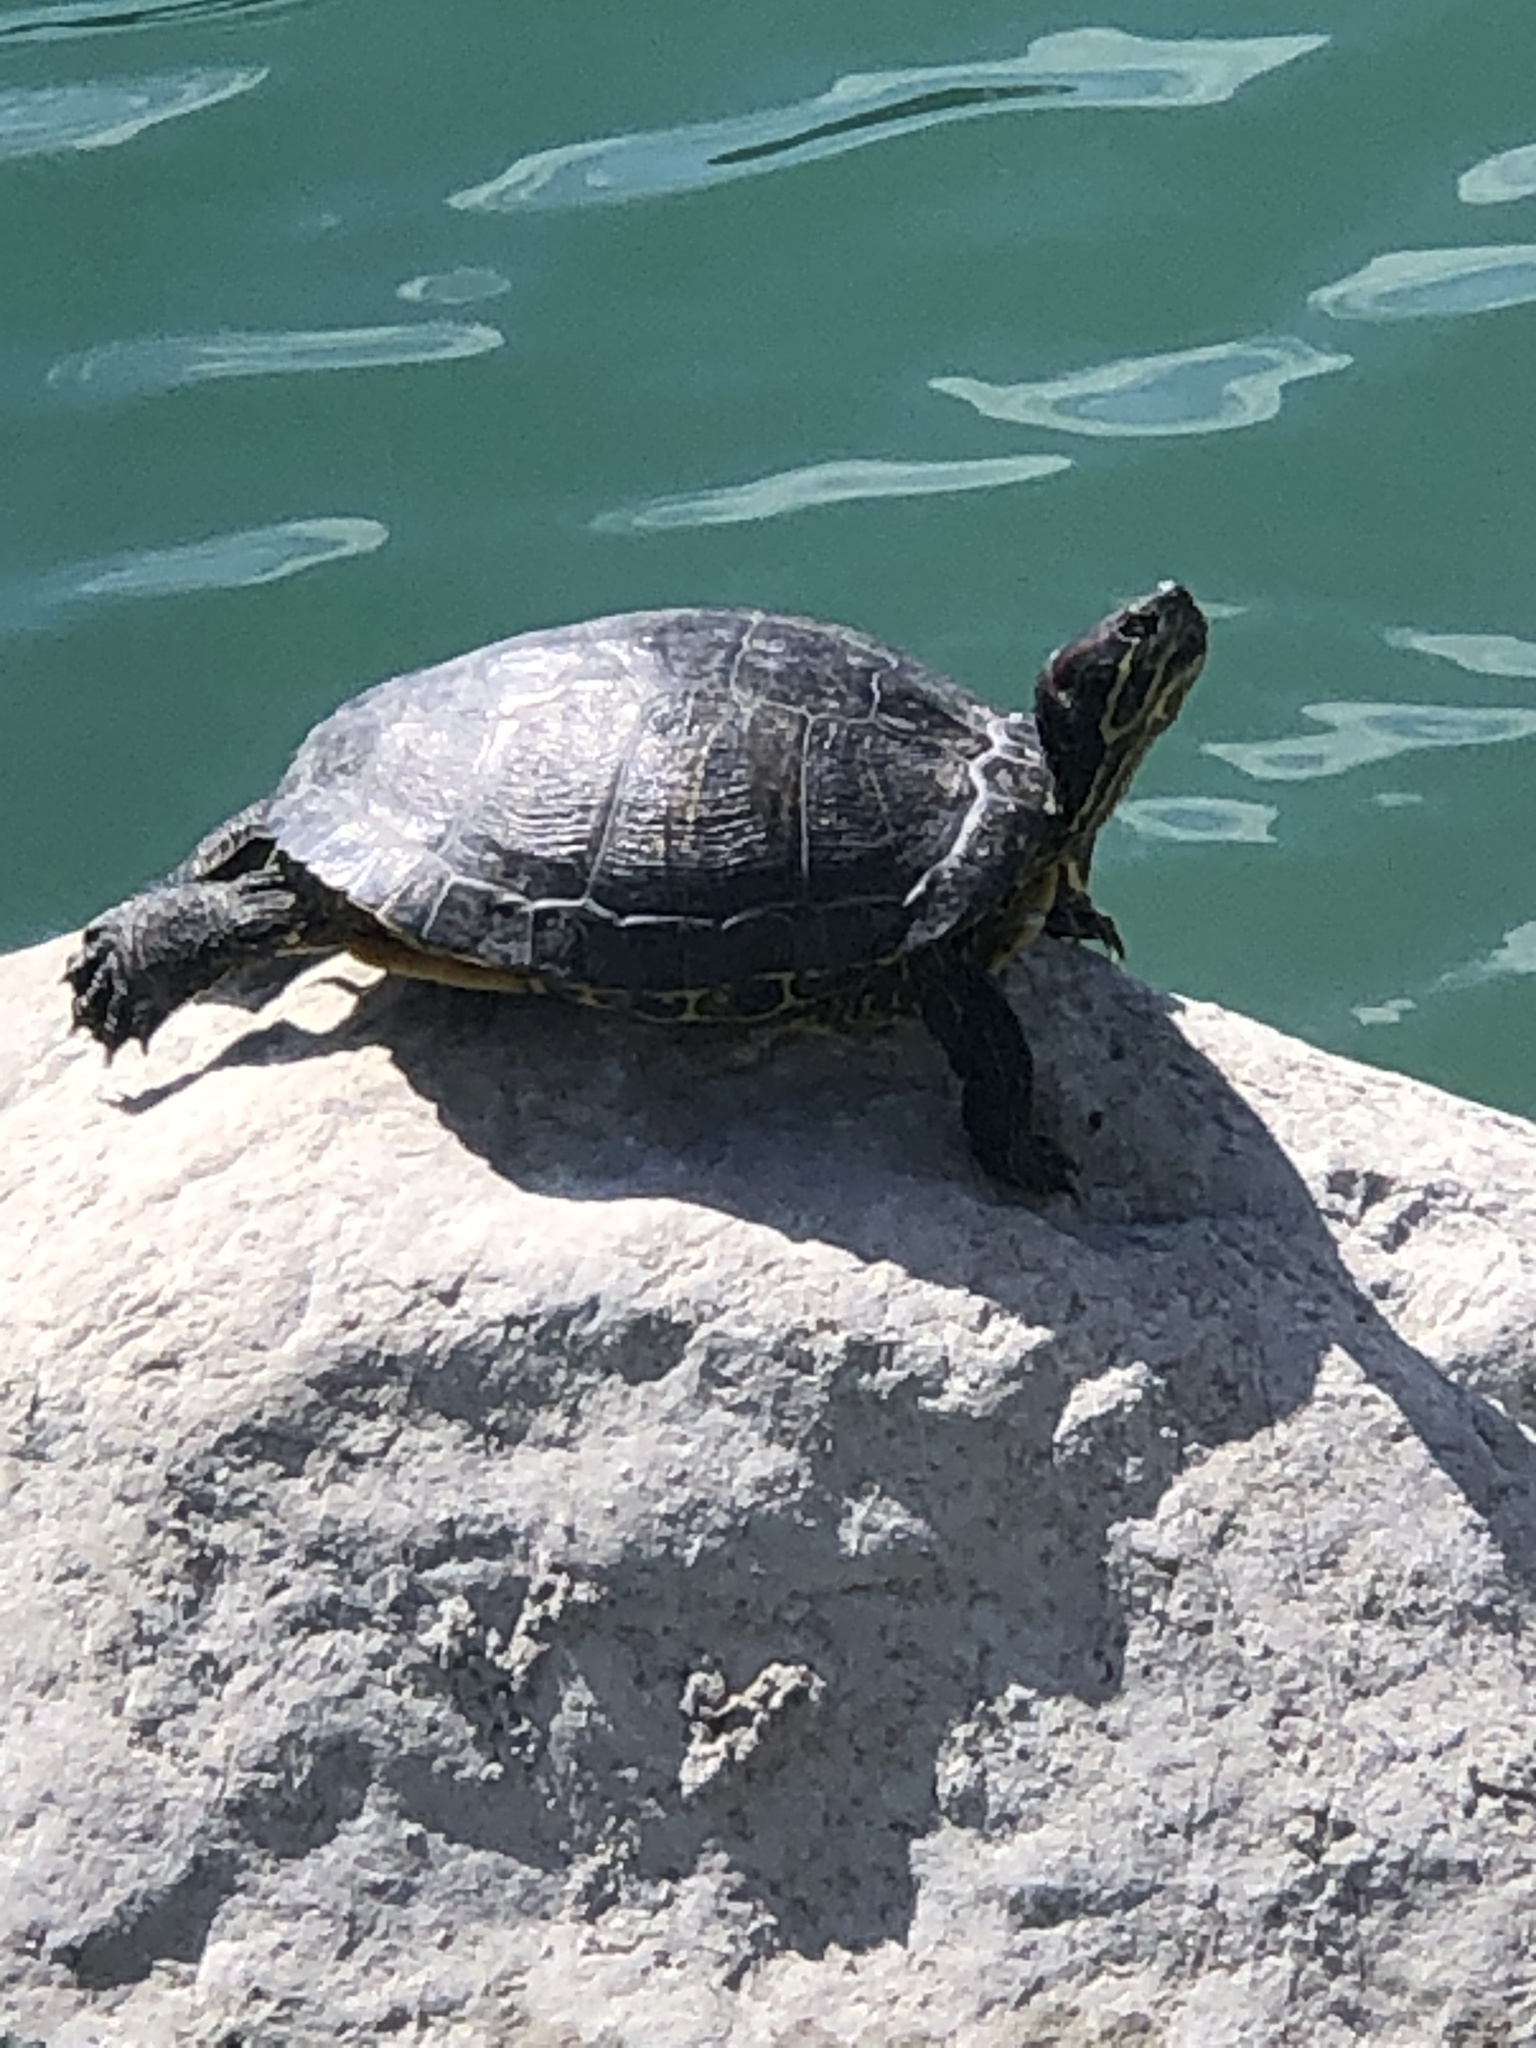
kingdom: Animalia
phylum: Chordata
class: Testudines
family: Emydidae
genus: Trachemys
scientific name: Trachemys scripta
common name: Slider
